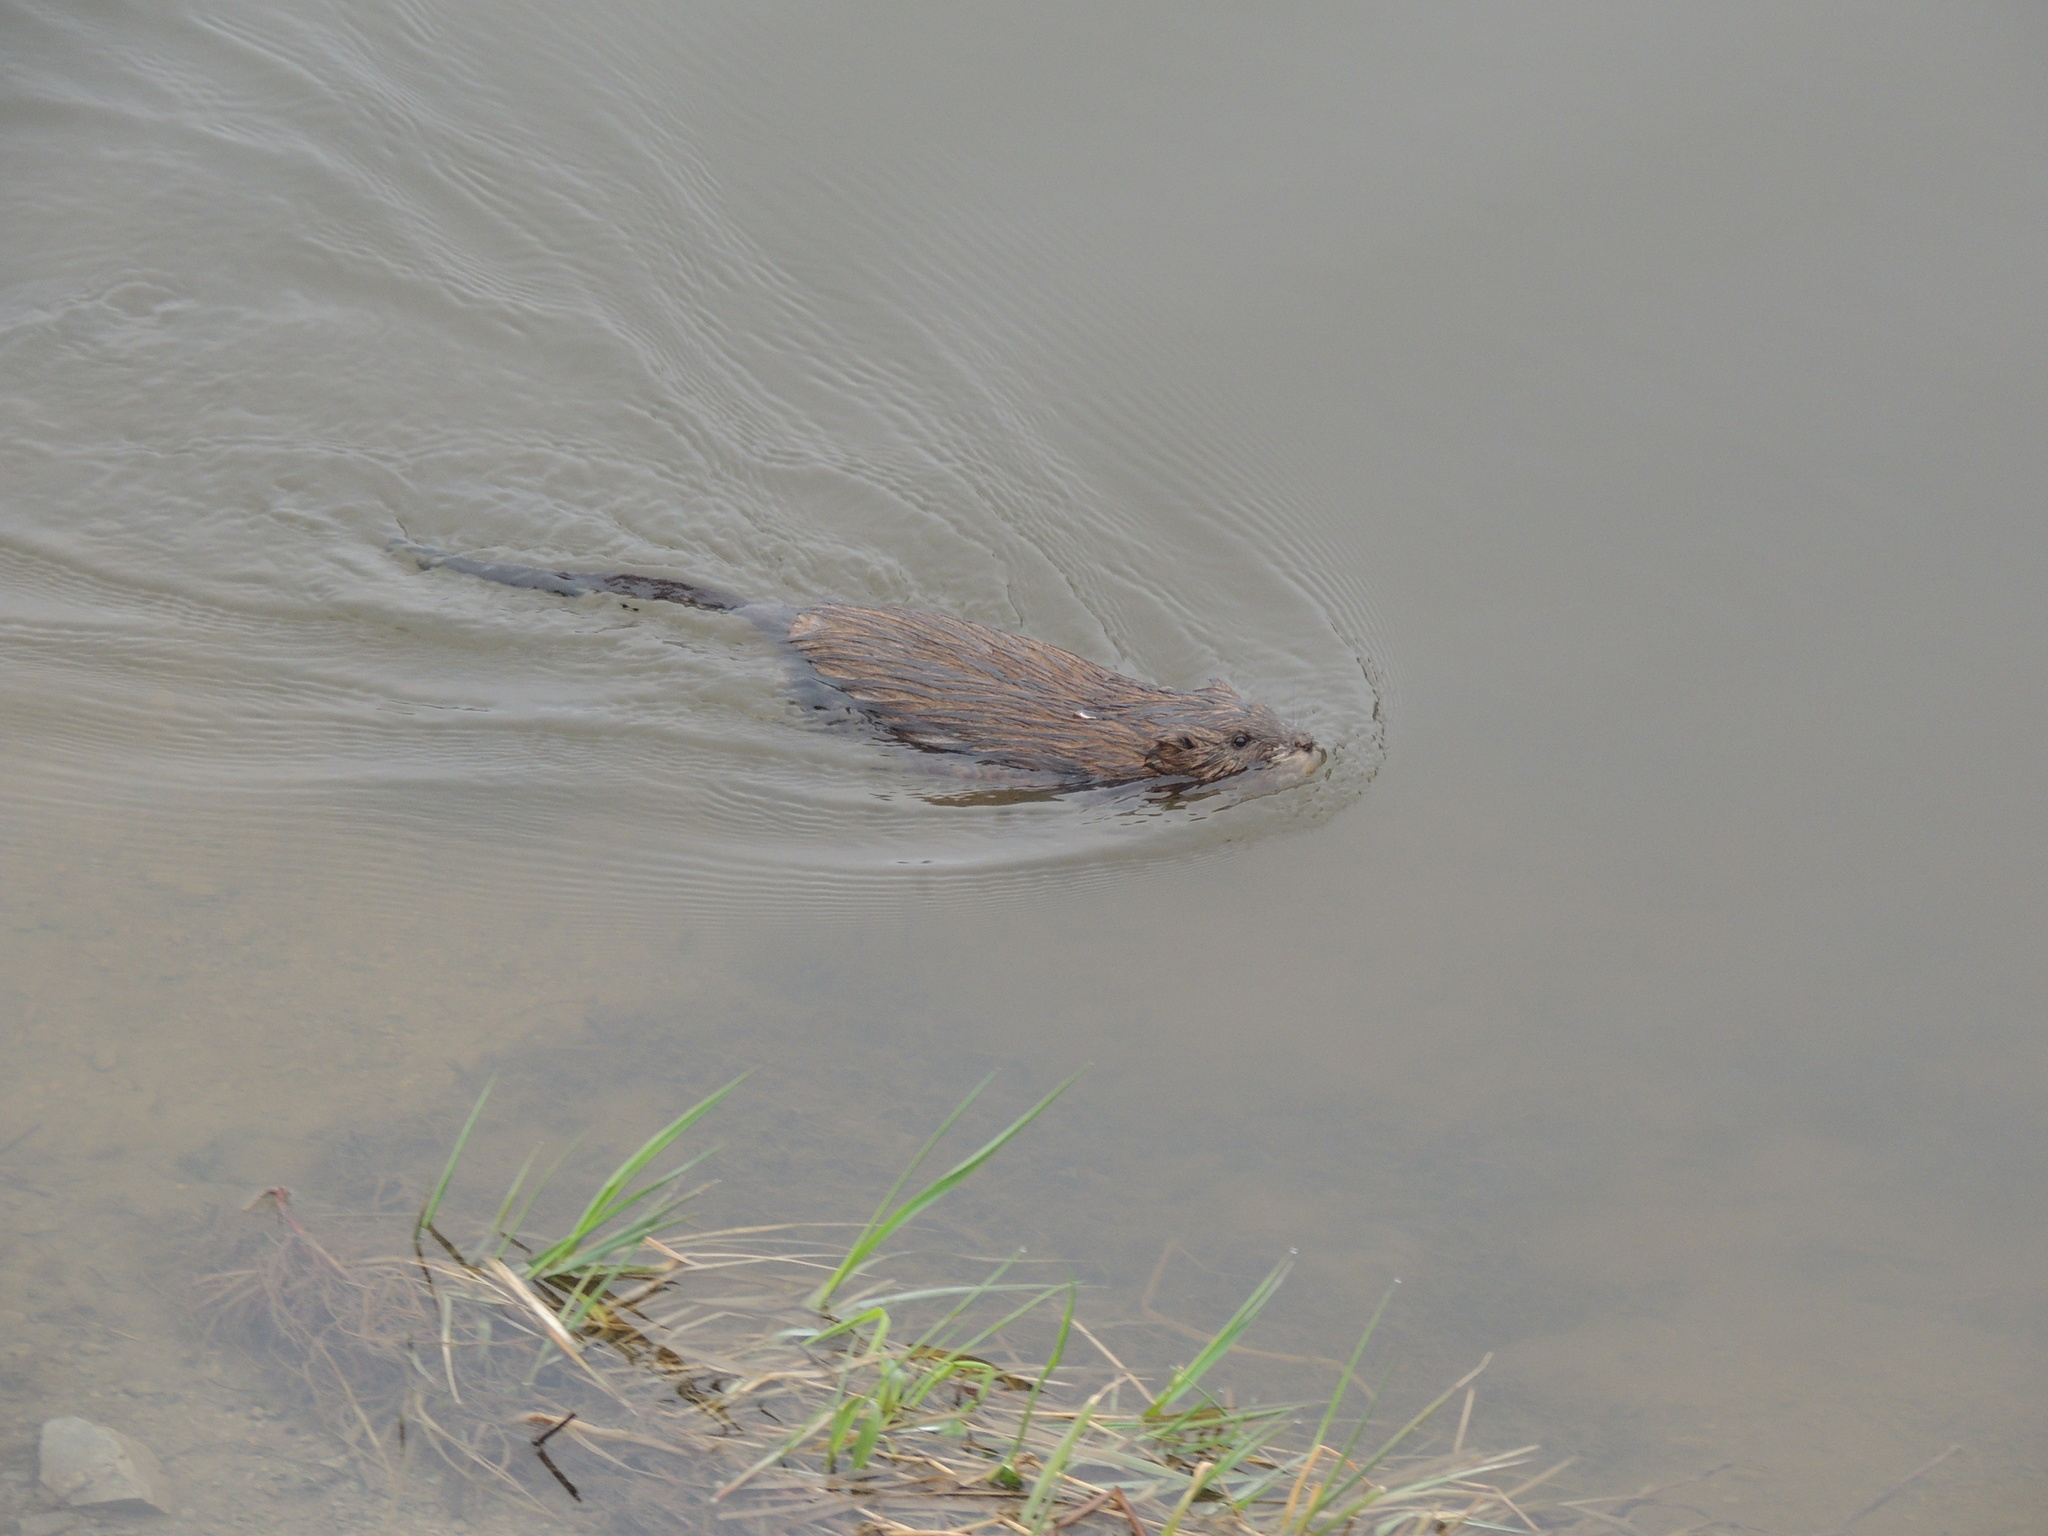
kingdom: Animalia
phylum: Chordata
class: Mammalia
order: Rodentia
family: Cricetidae
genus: Ondatra
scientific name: Ondatra zibethicus
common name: Muskrat
